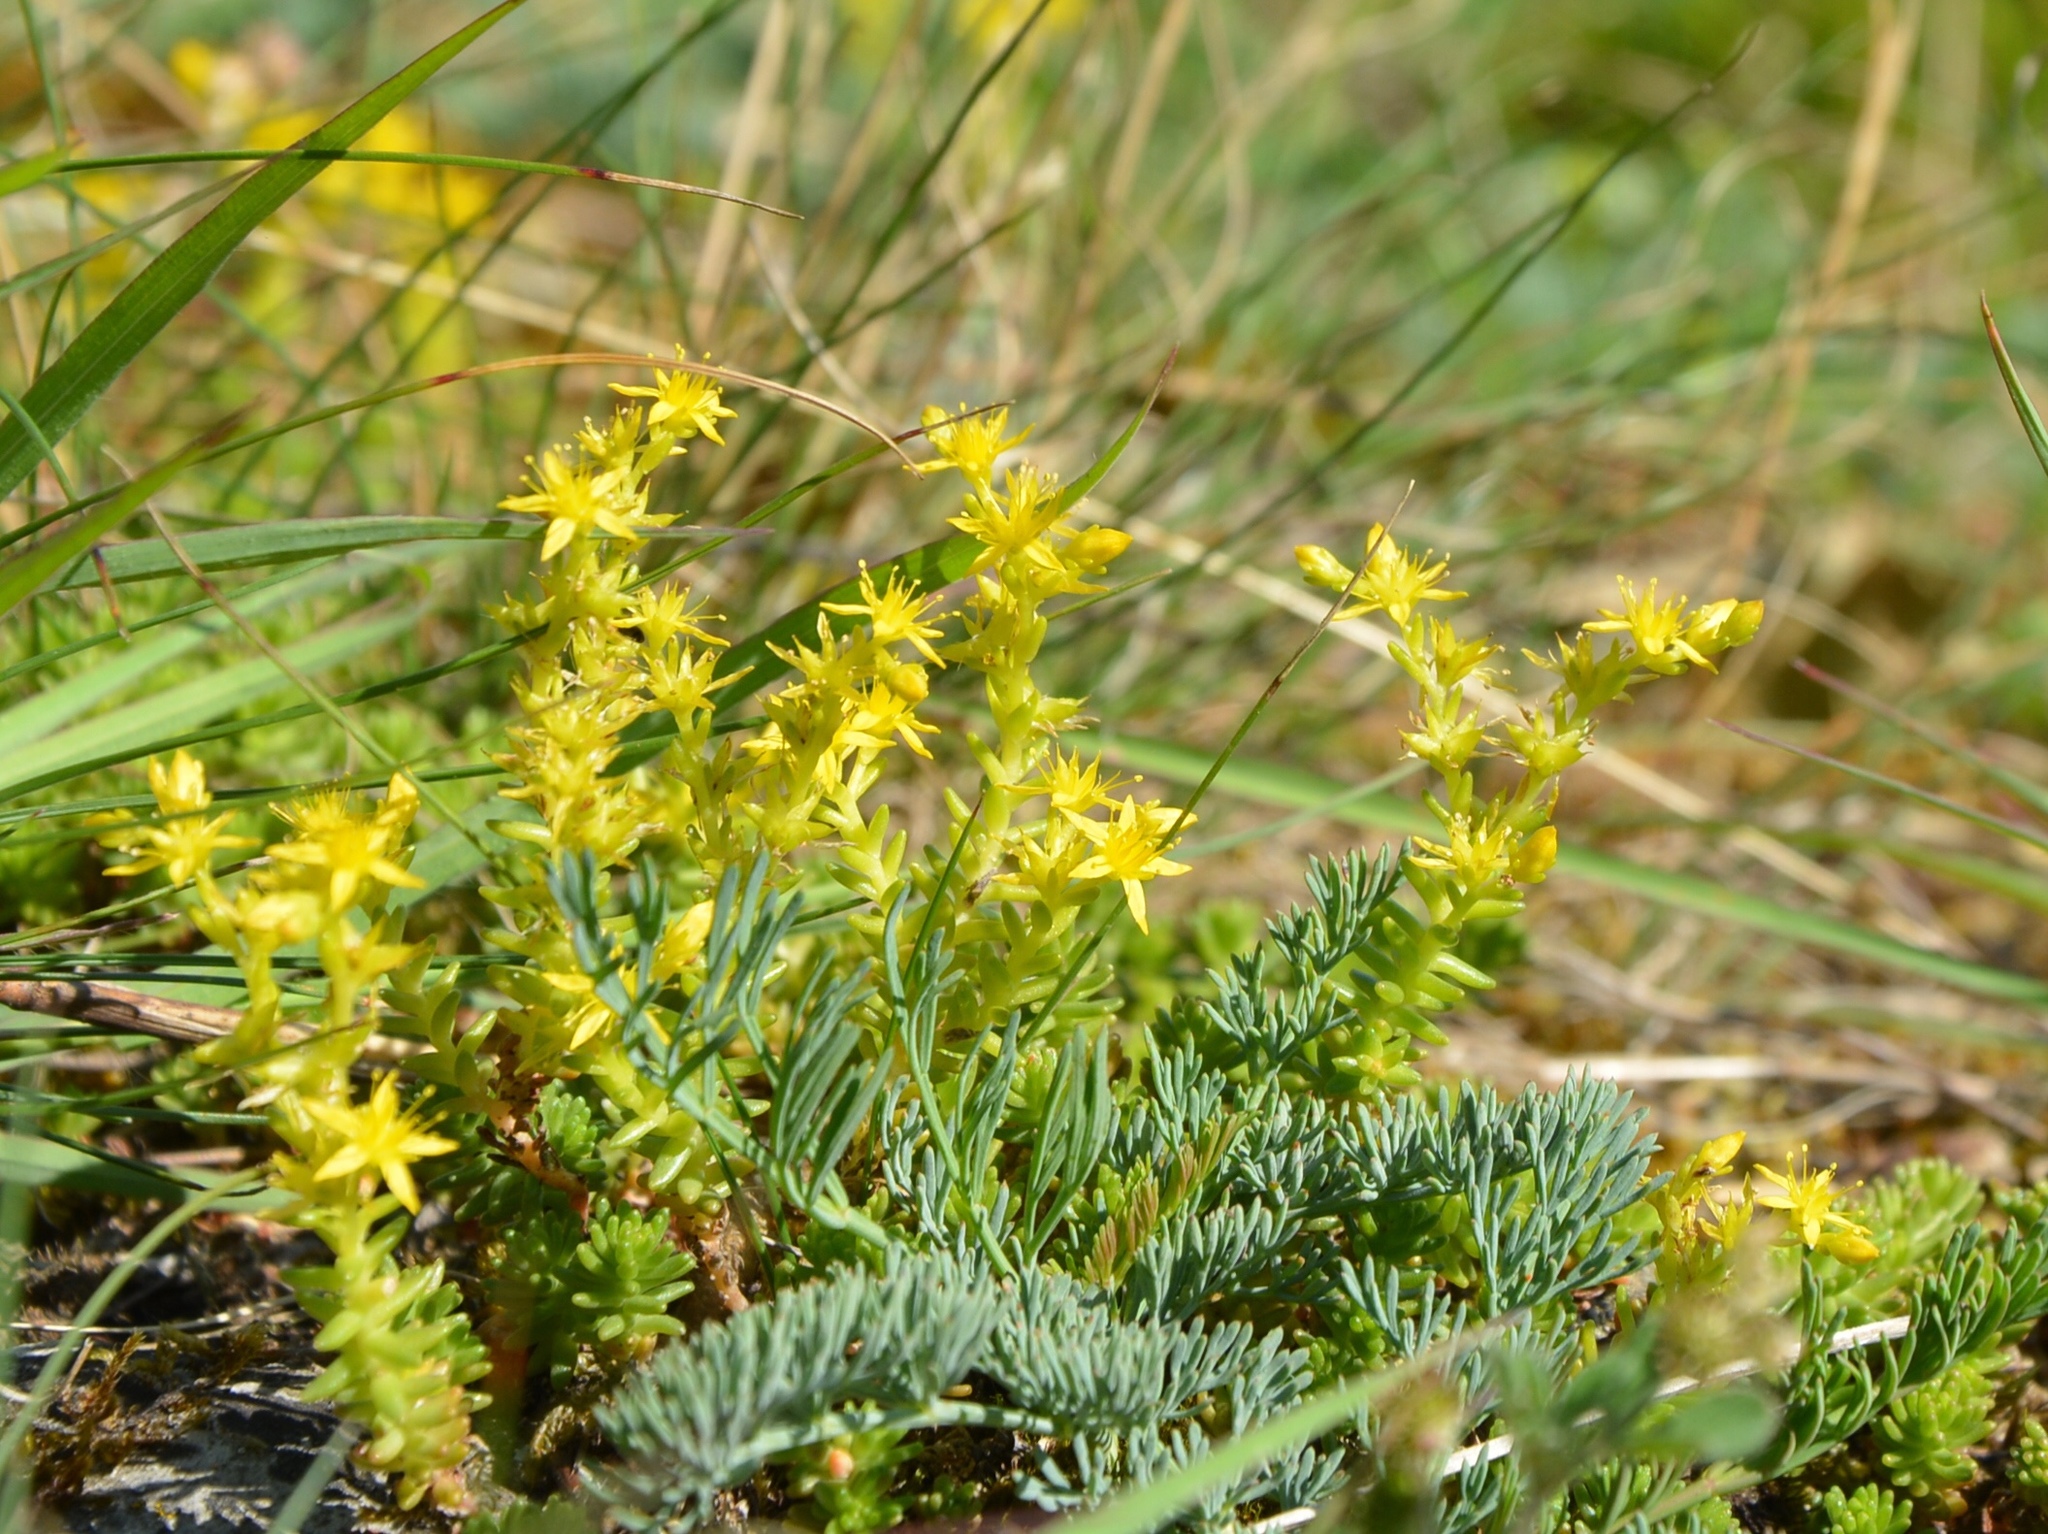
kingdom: Plantae
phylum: Tracheophyta
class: Magnoliopsida
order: Saxifragales
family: Crassulaceae
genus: Sedum
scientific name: Sedum sexangulare
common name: Tasteless stonecrop
